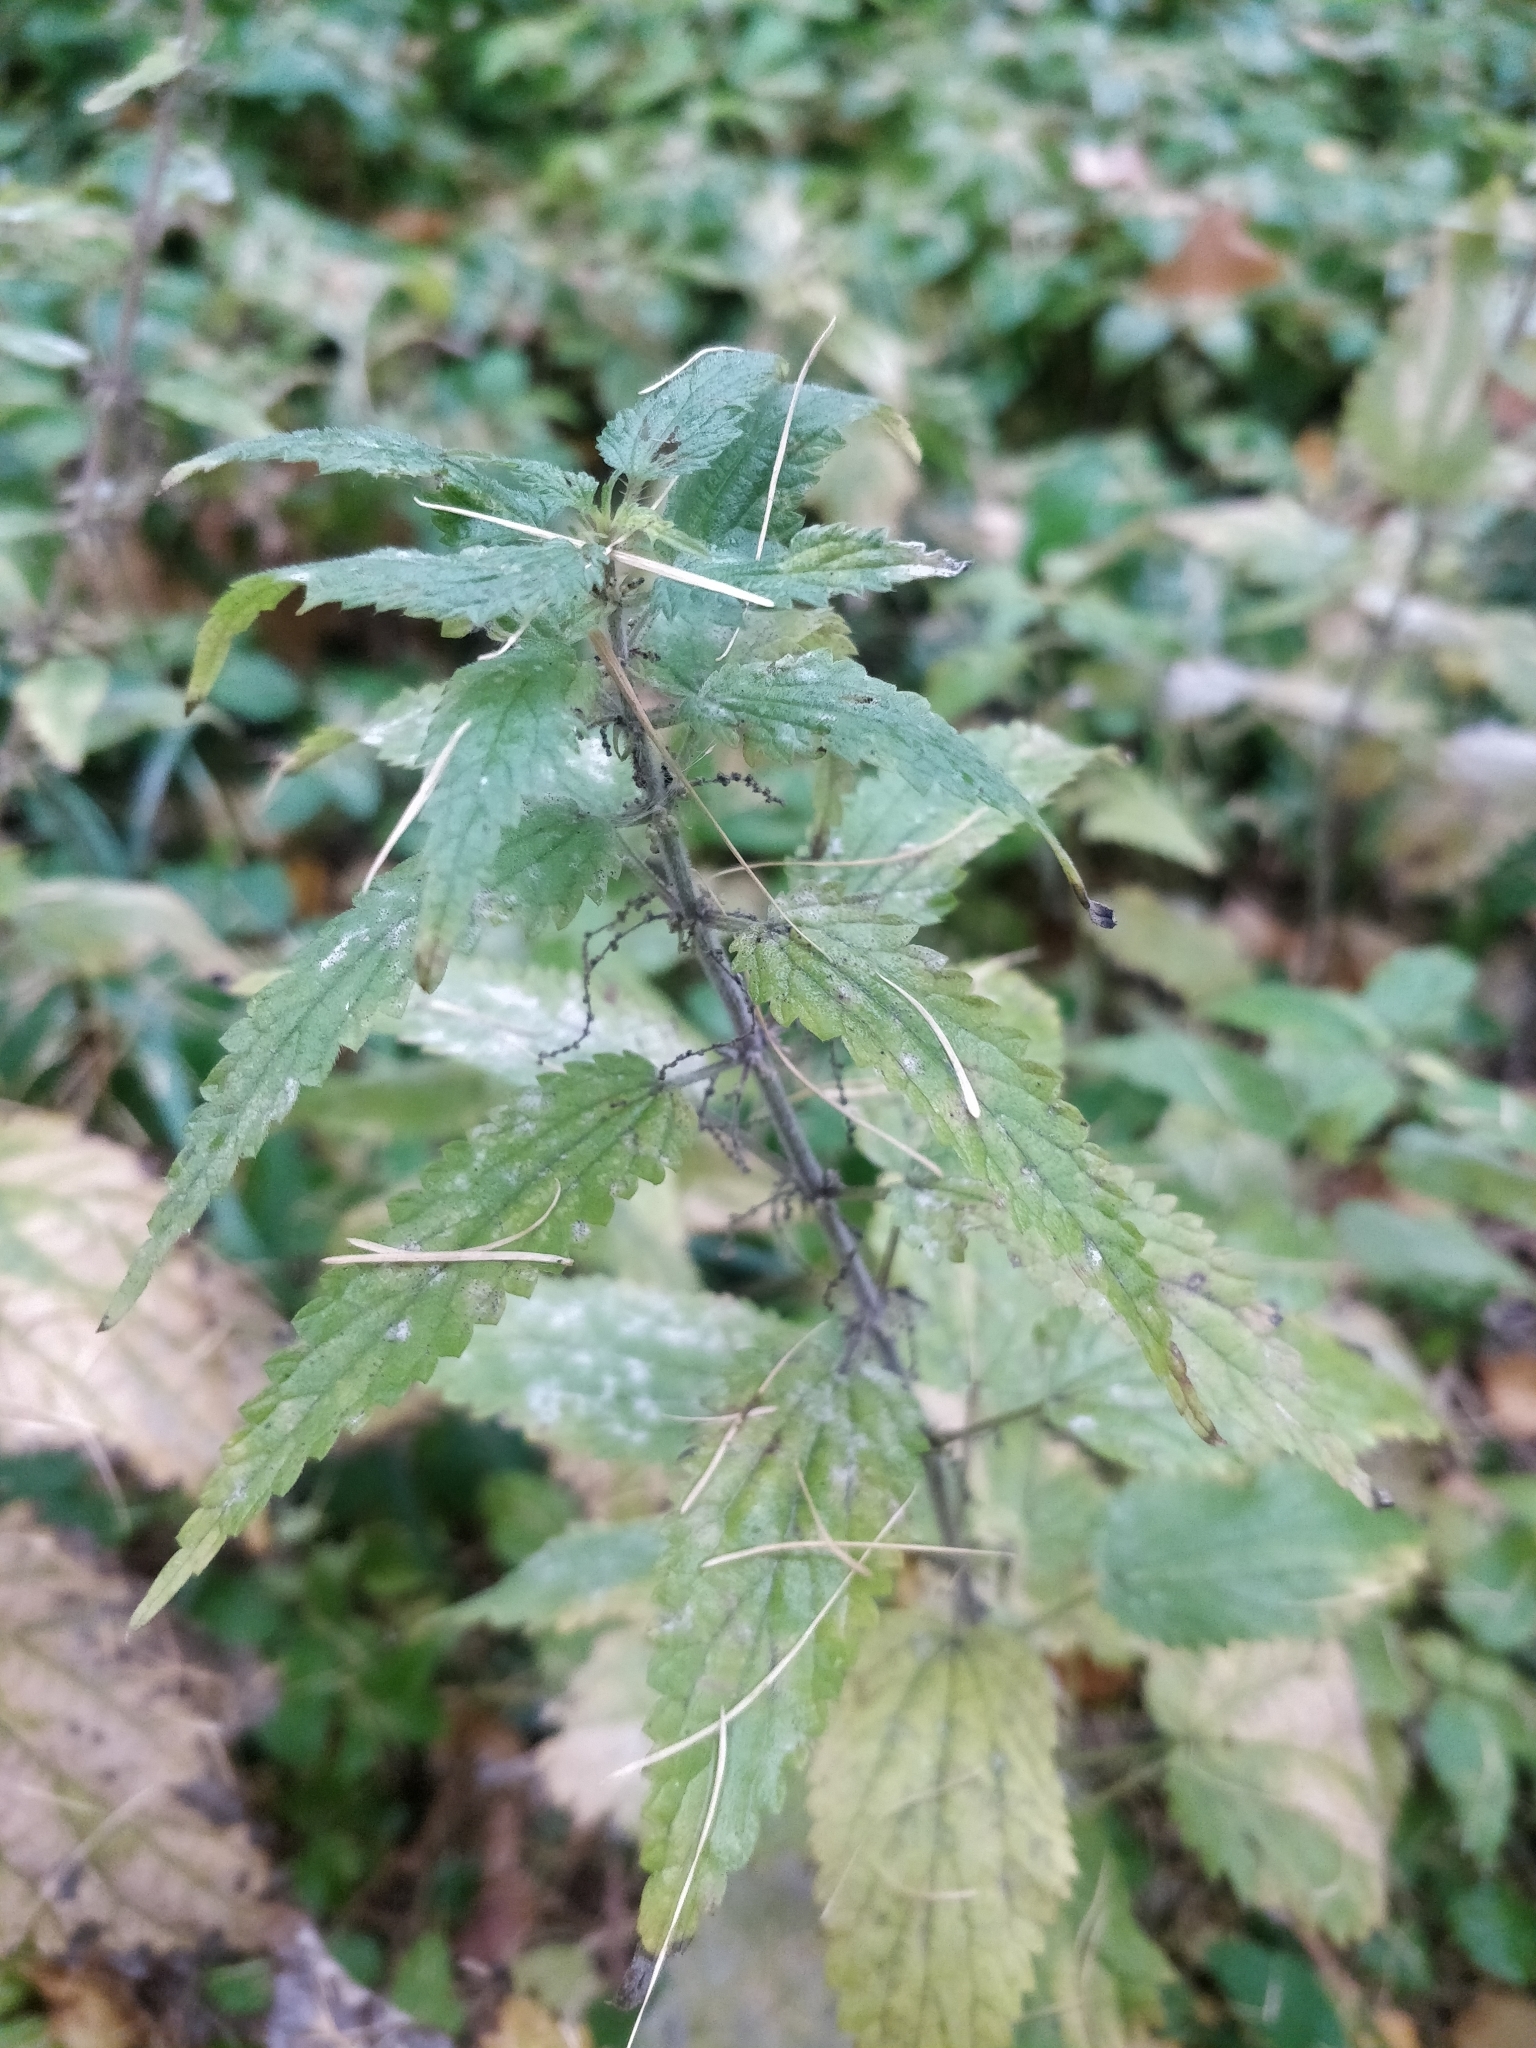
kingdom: Plantae
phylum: Tracheophyta
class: Magnoliopsida
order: Rosales
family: Urticaceae
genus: Urtica
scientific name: Urtica dioica
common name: Common nettle
